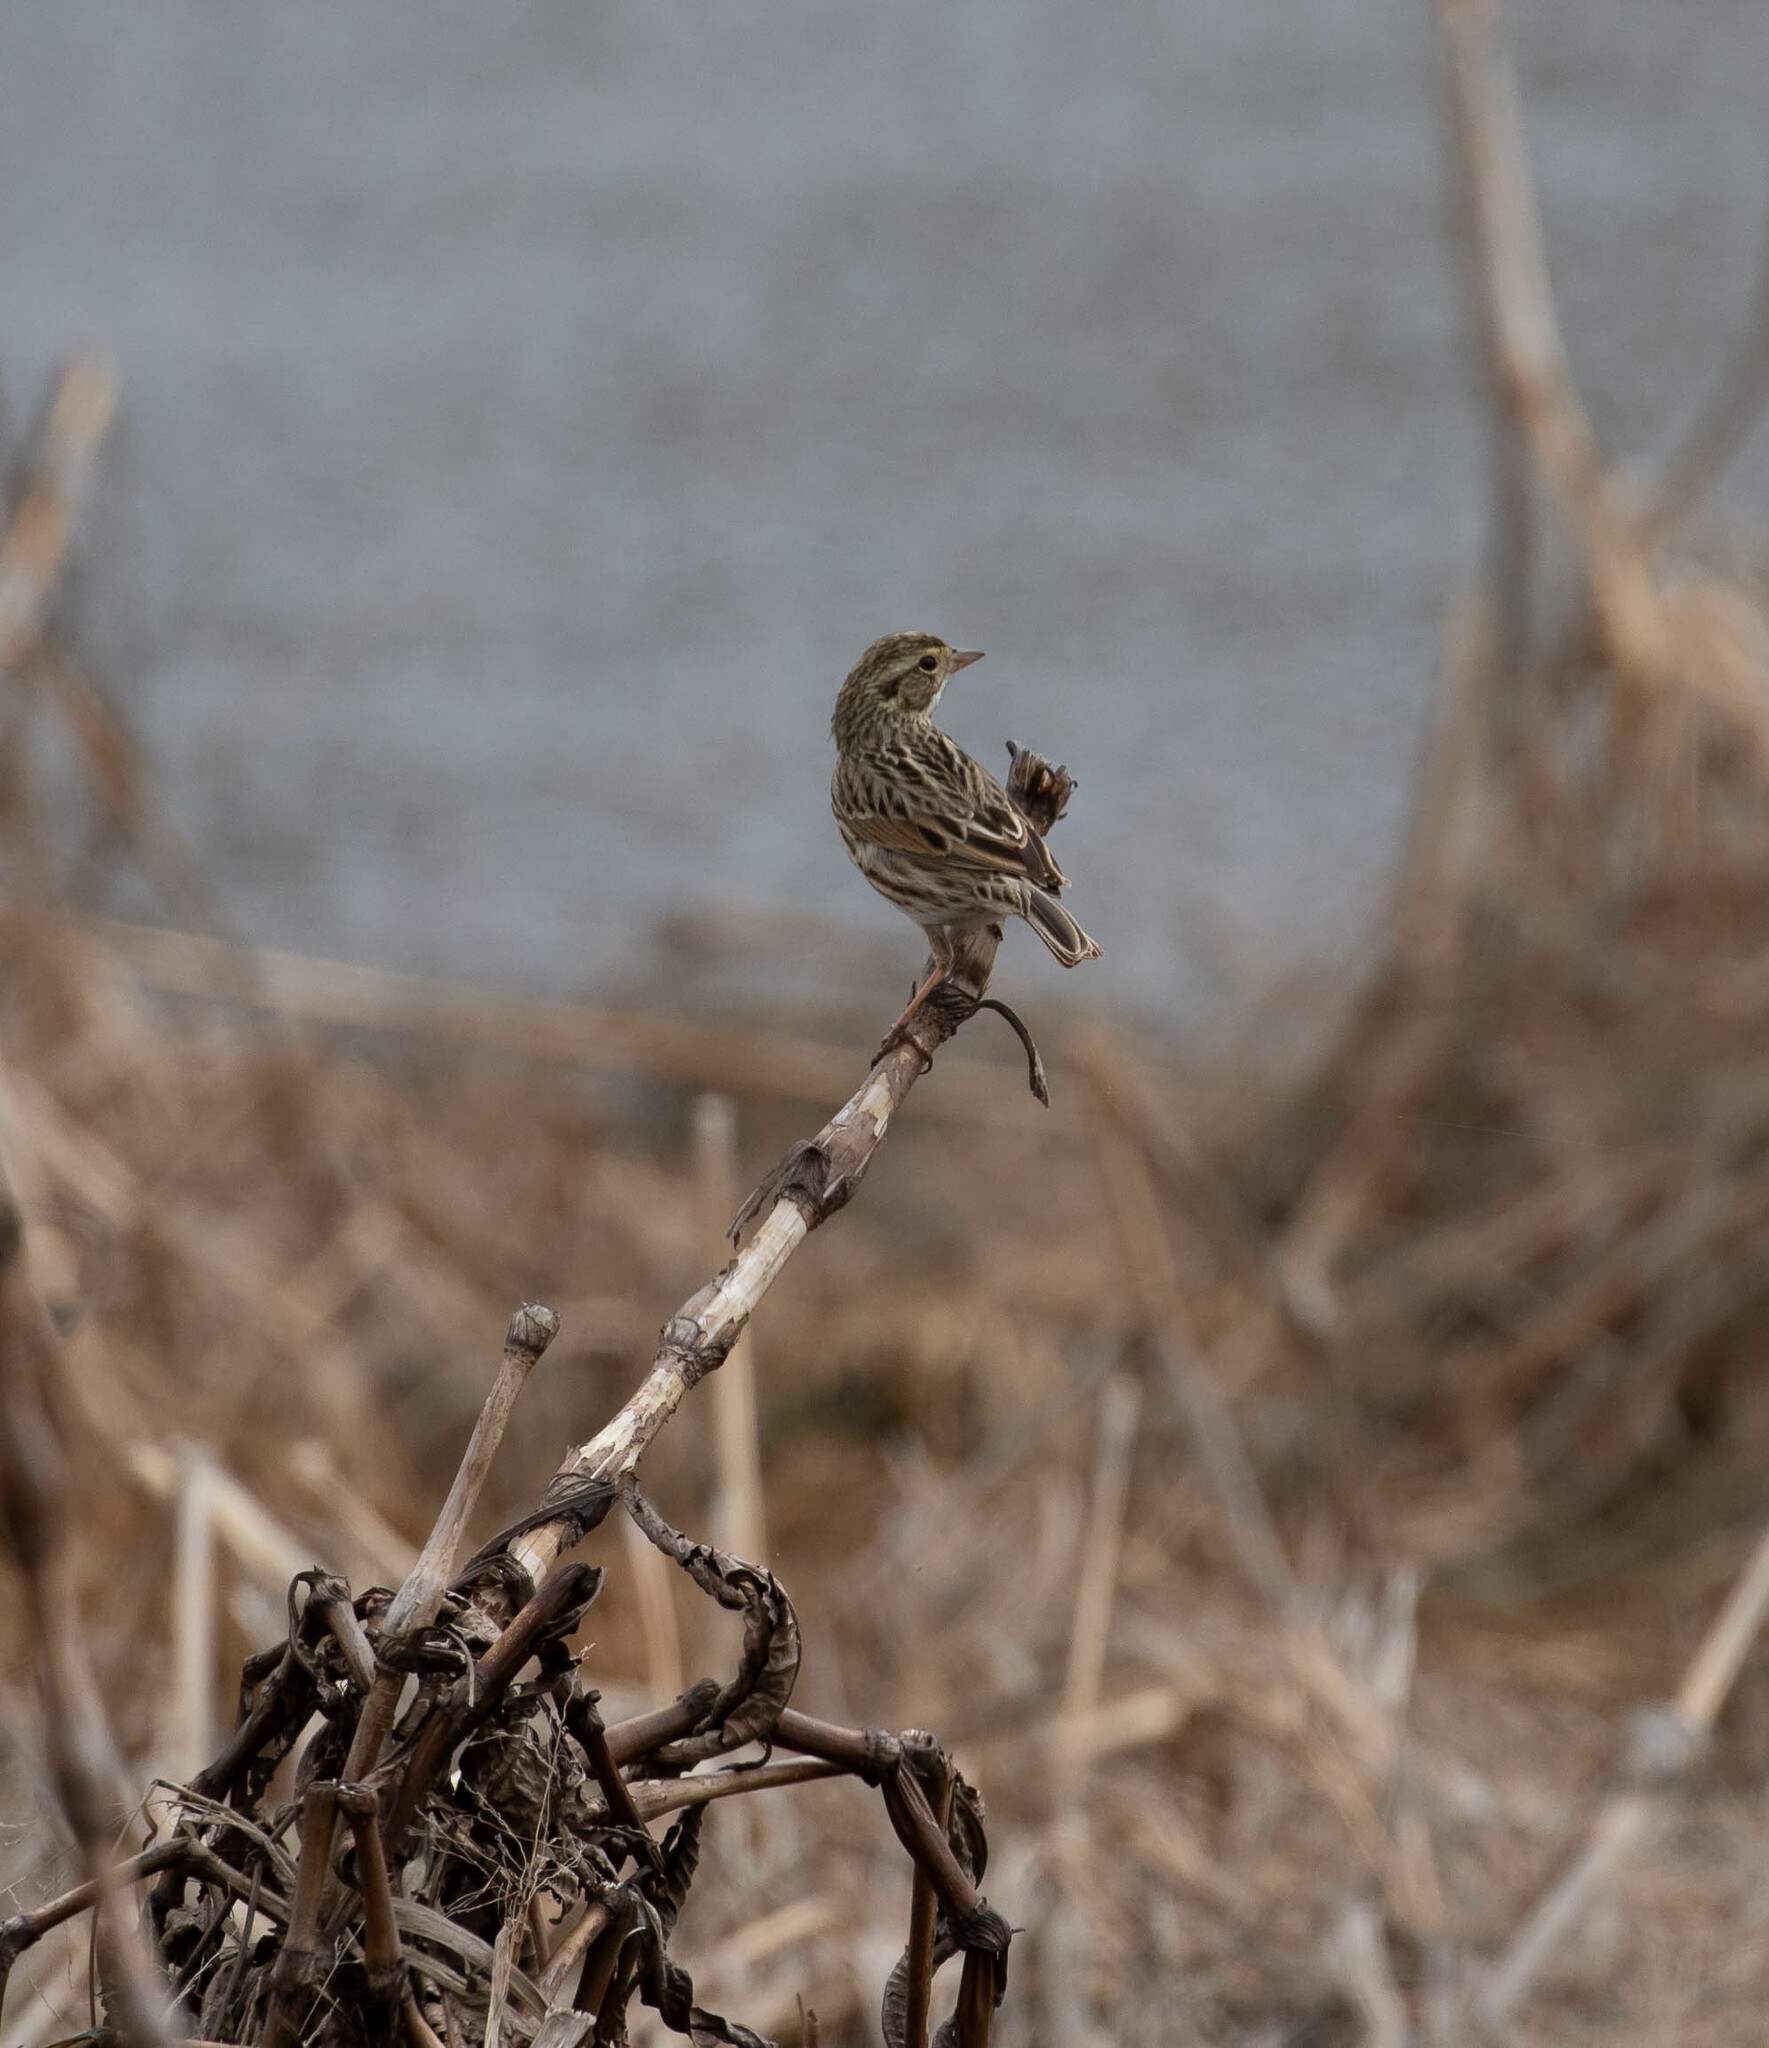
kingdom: Animalia
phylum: Chordata
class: Aves
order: Passeriformes
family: Passerellidae
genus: Passerculus
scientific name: Passerculus sandwichensis
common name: Savannah sparrow
